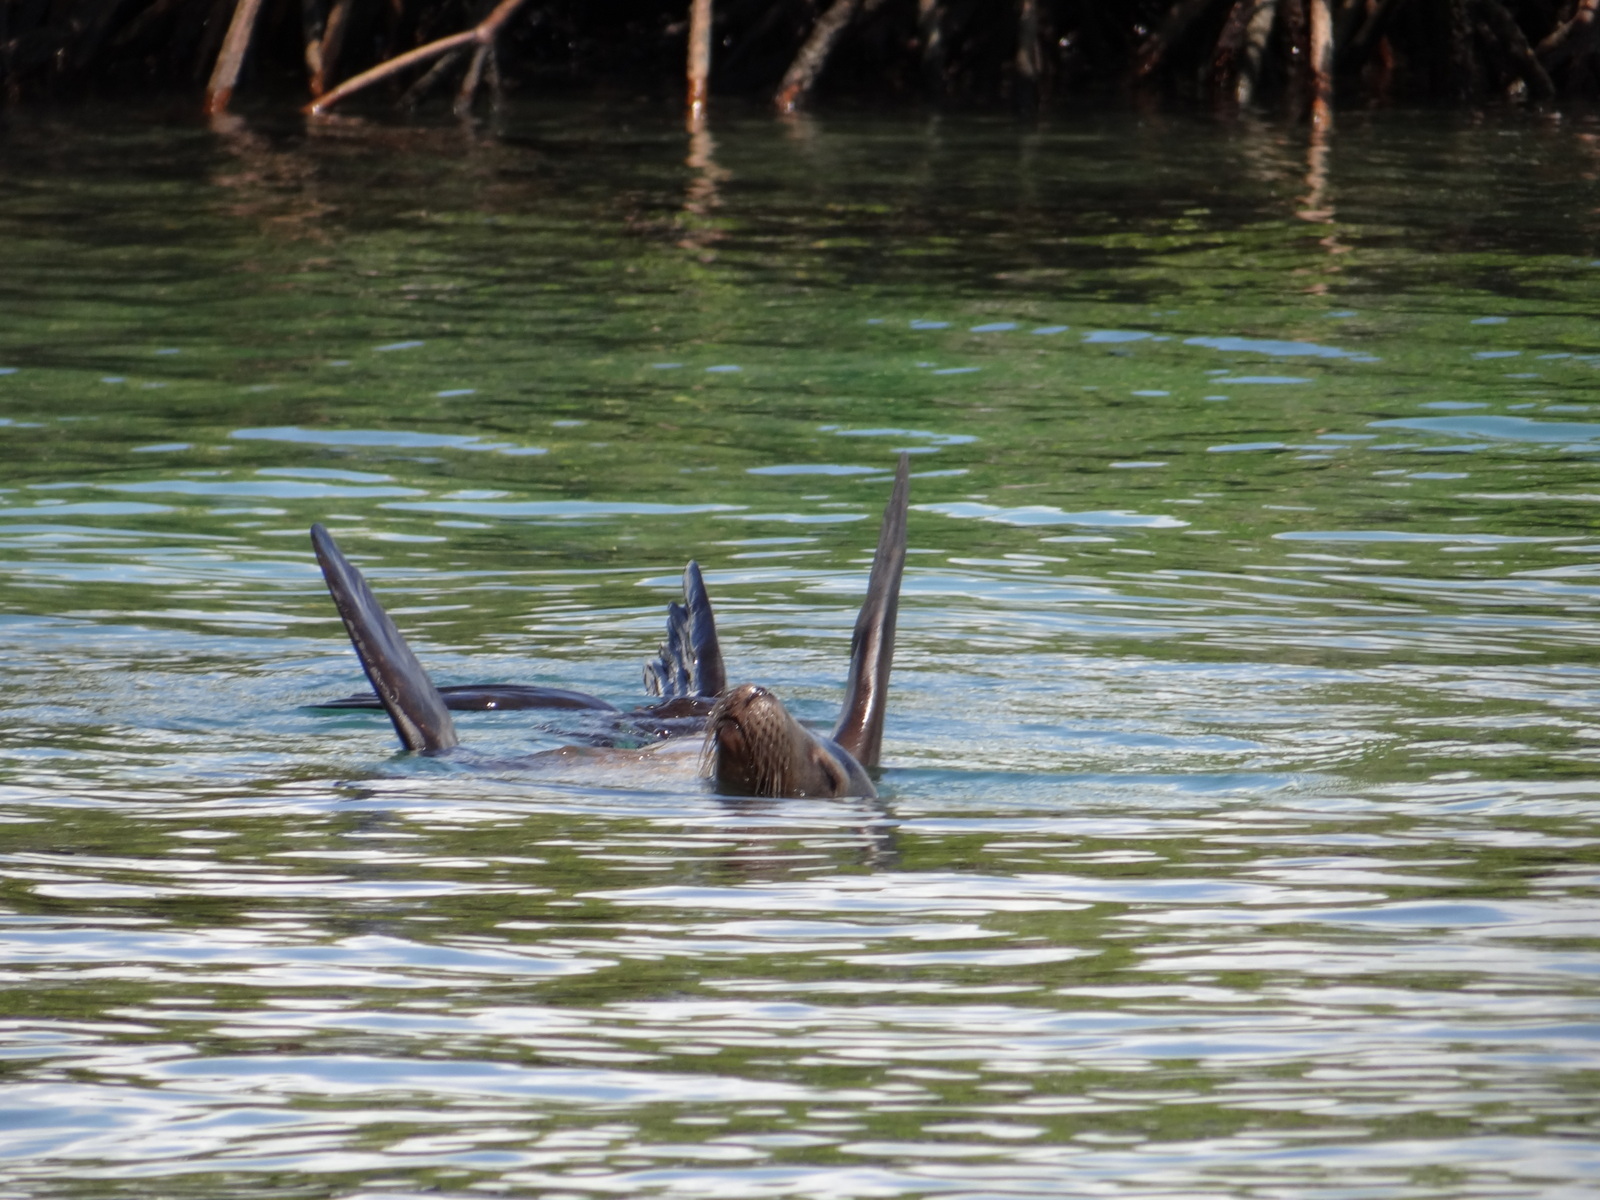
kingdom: Animalia
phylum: Chordata
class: Mammalia
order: Carnivora
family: Otariidae
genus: Zalophus
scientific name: Zalophus wollebaeki
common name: Galapagos sea lion
